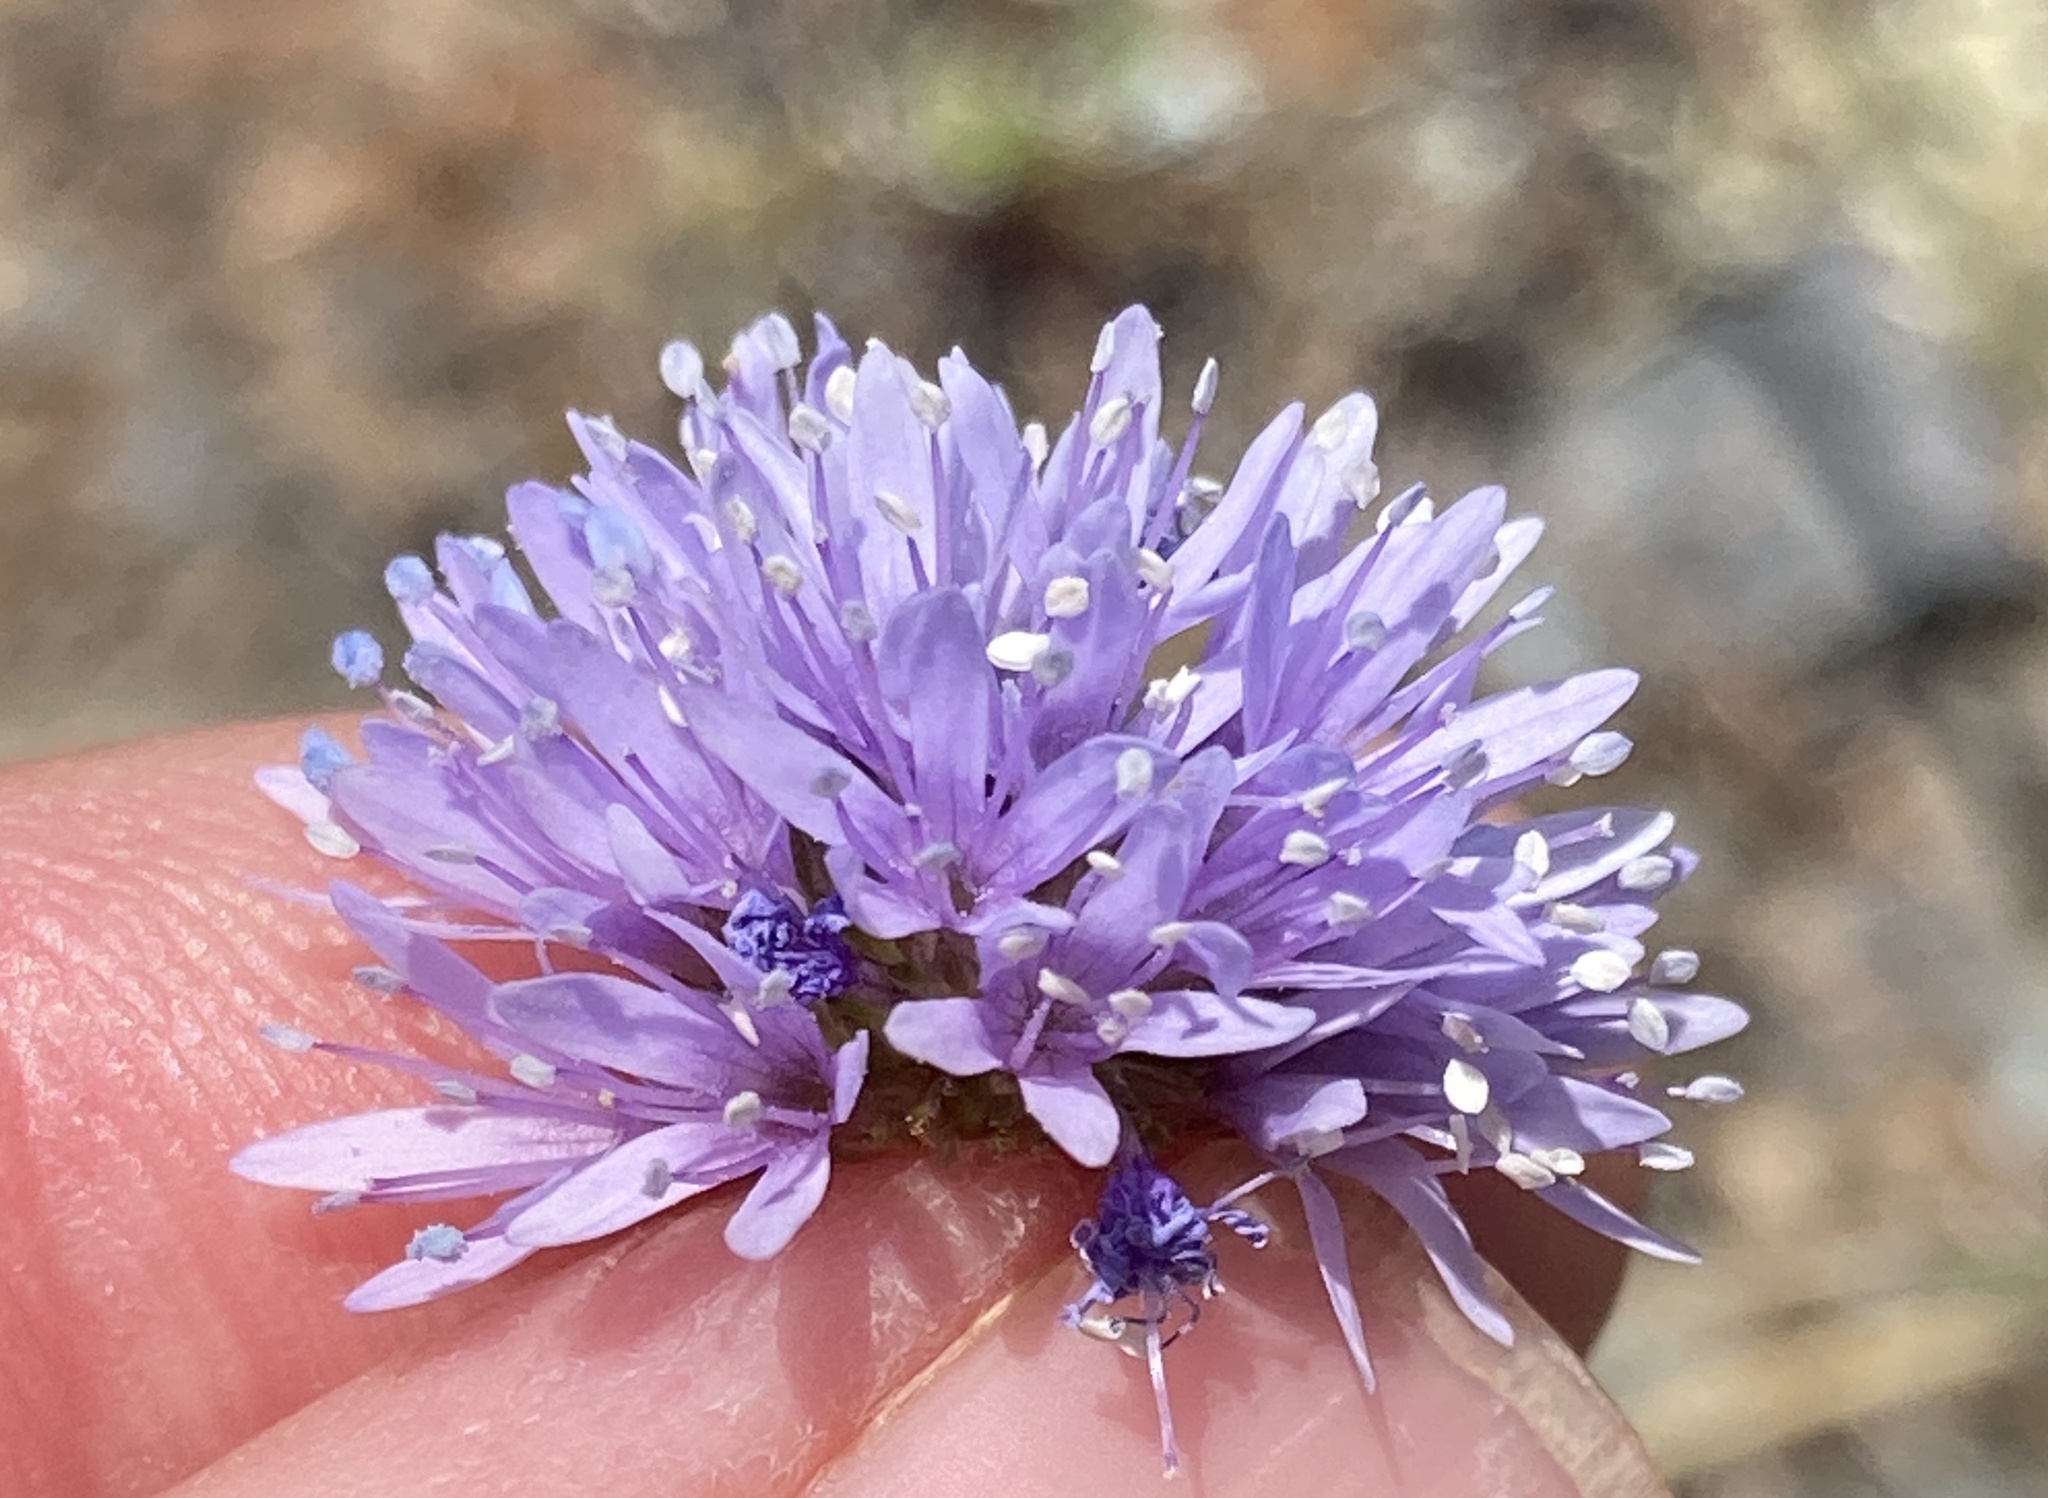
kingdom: Plantae
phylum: Tracheophyta
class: Magnoliopsida
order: Ericales
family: Polemoniaceae
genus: Gilia
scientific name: Gilia capitata
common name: Bluehead gilia
